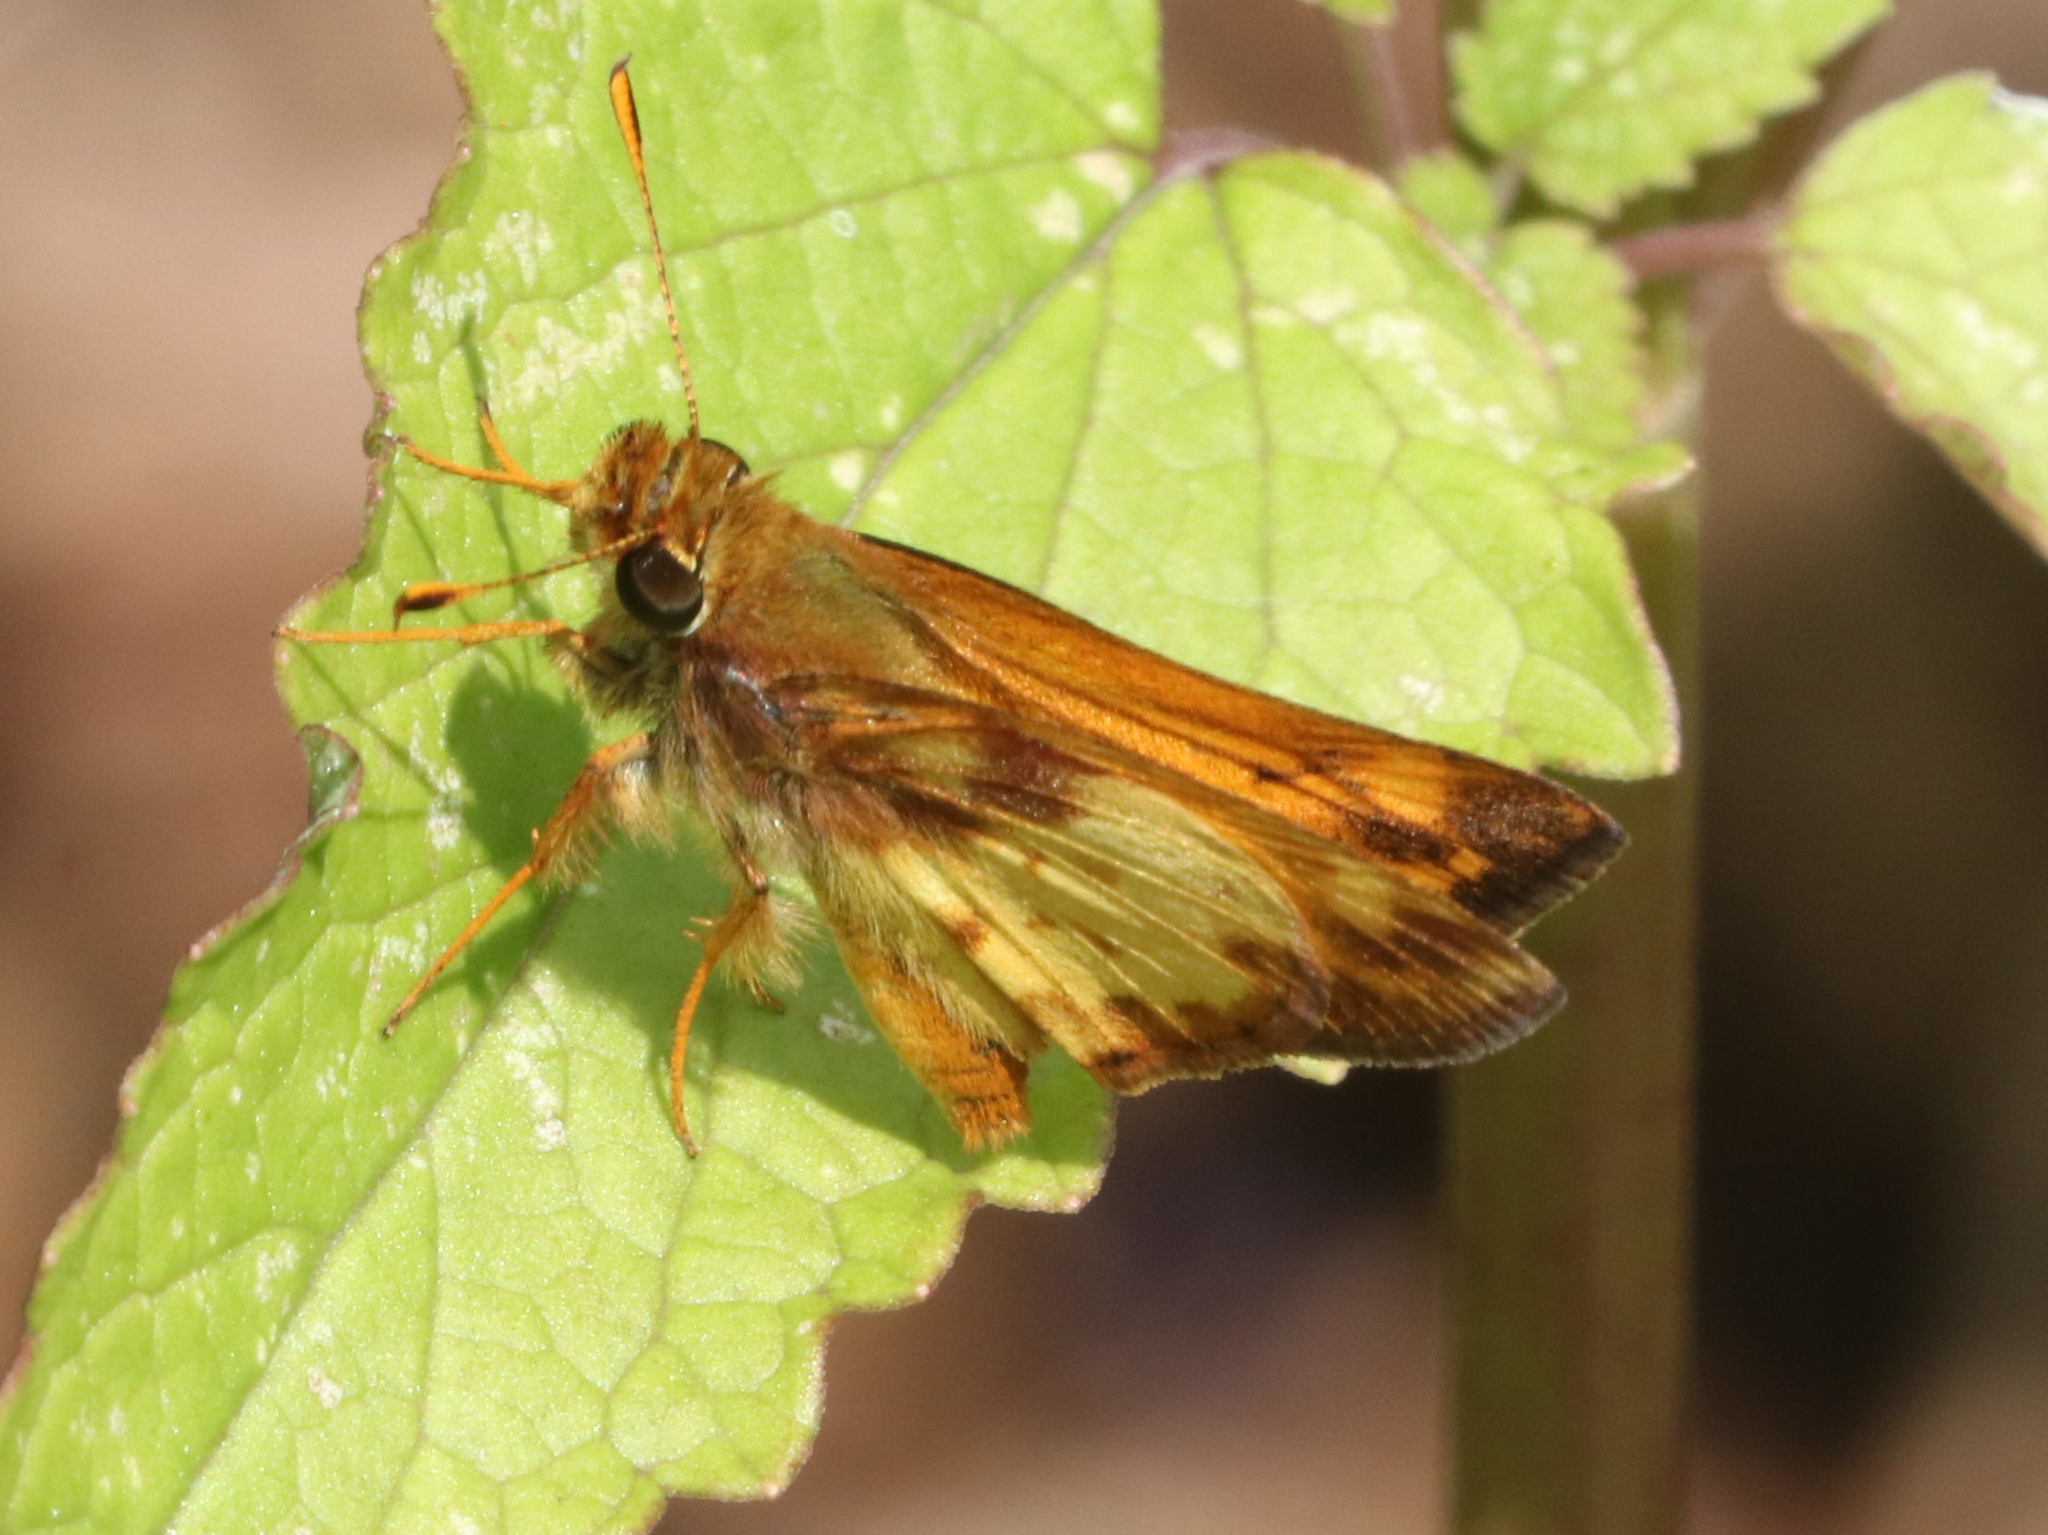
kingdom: Animalia
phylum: Arthropoda
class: Insecta
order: Lepidoptera
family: Hesperiidae
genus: Lon
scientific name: Lon zabulon
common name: Zabulon skipper
